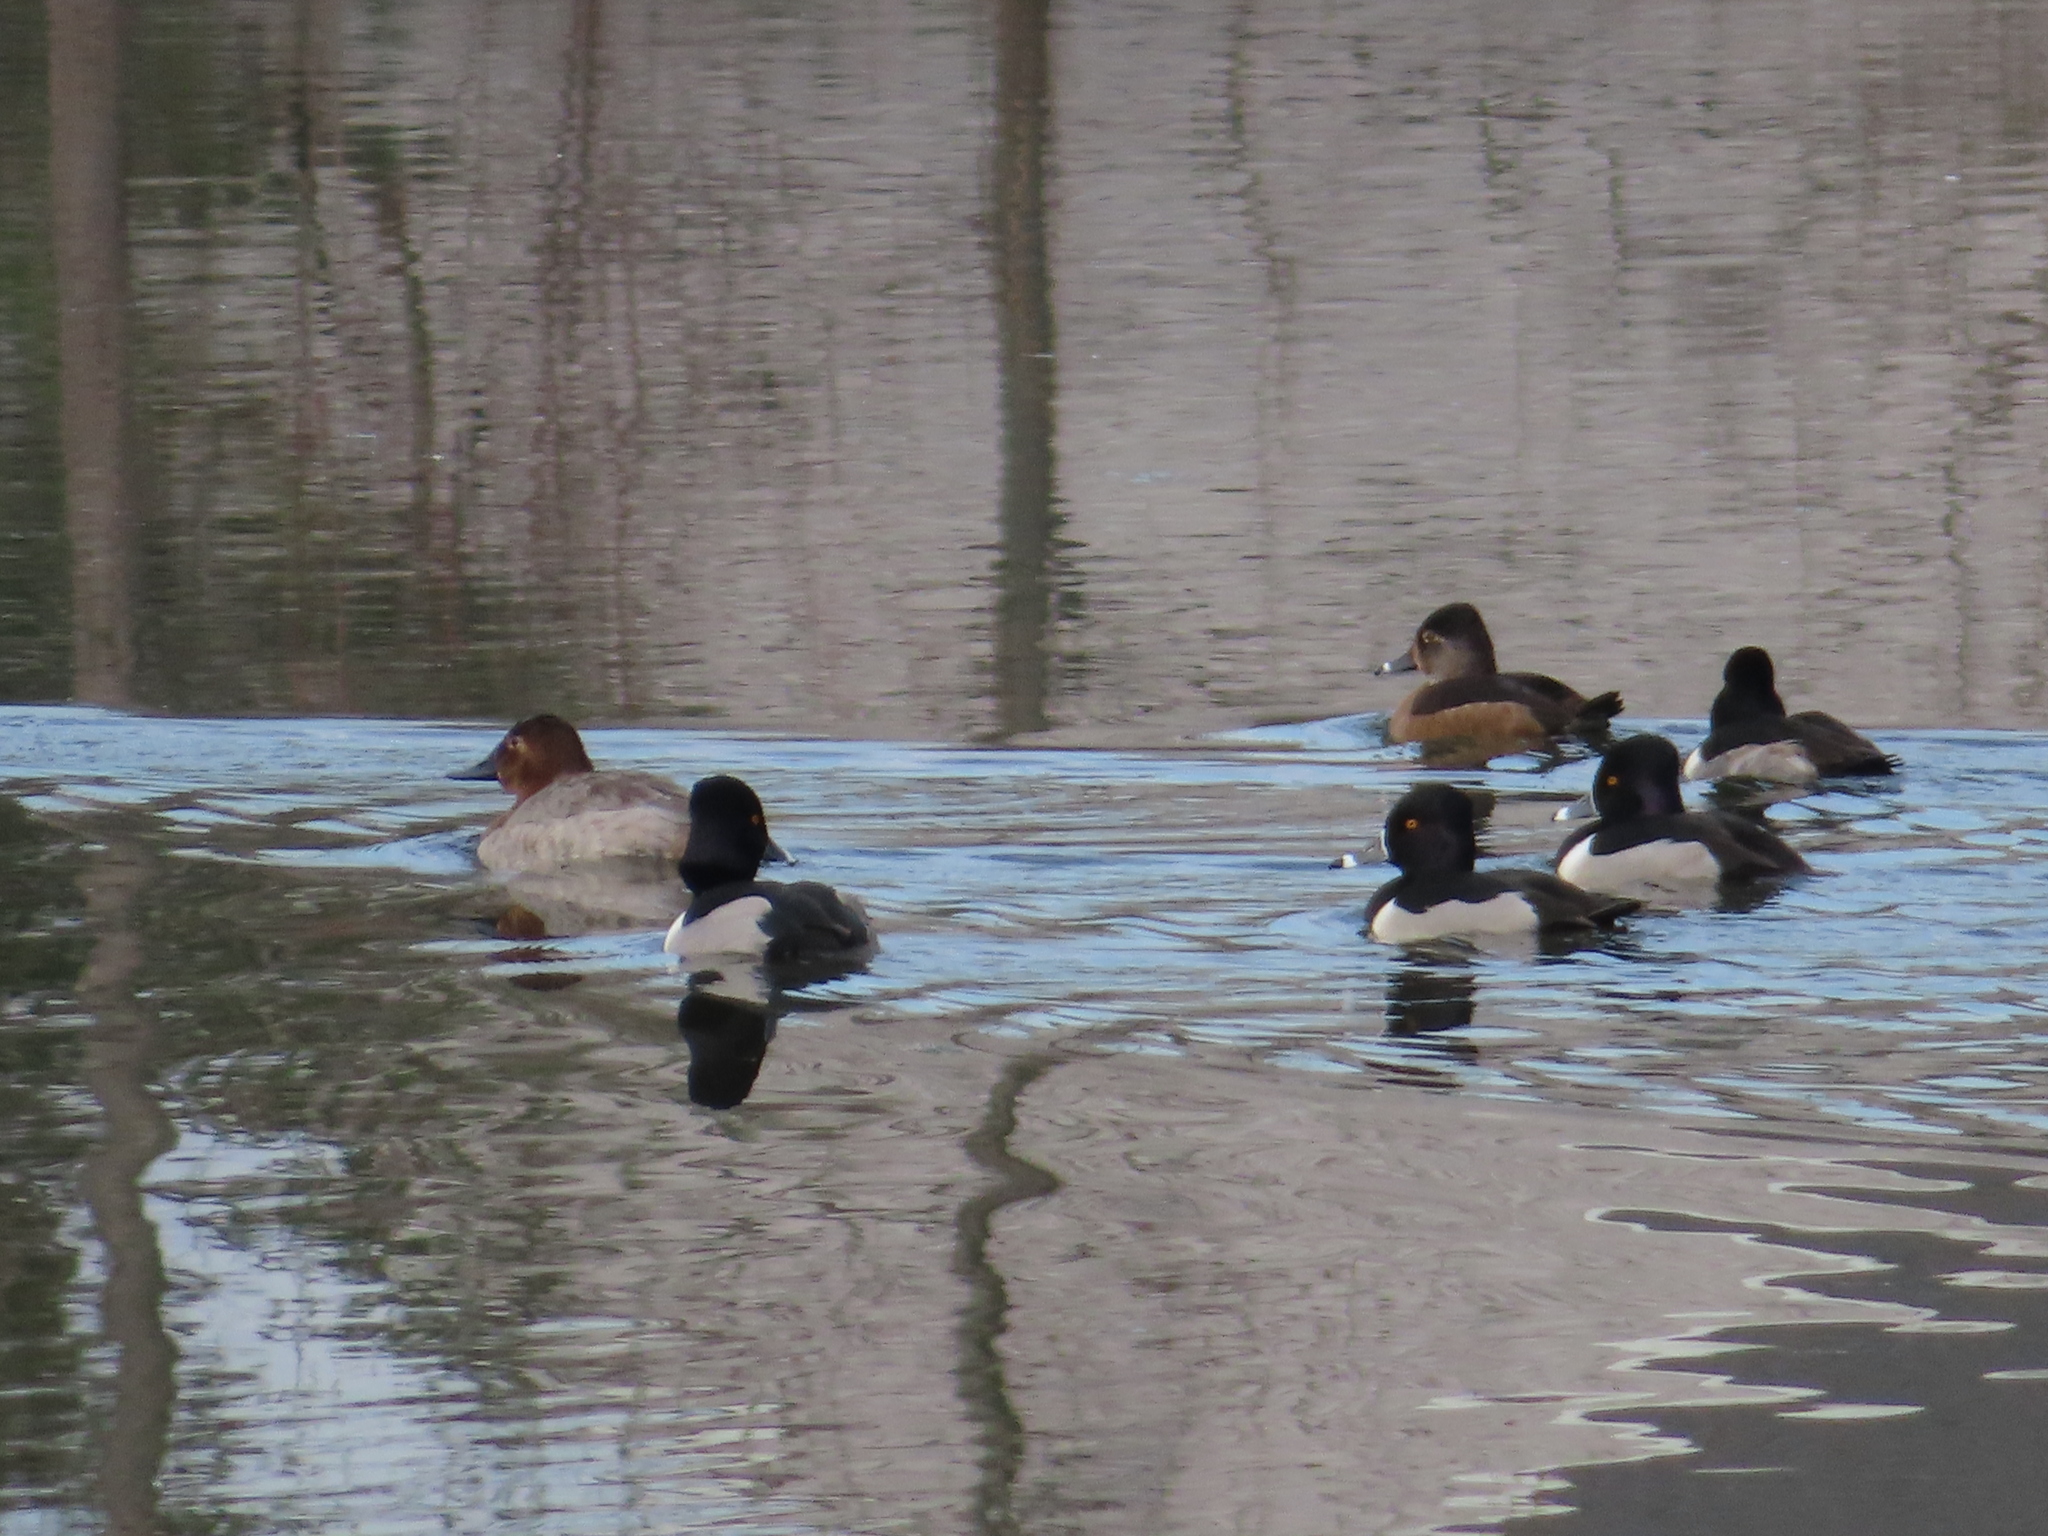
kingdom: Animalia
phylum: Chordata
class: Aves
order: Anseriformes
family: Anatidae
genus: Aythya
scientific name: Aythya collaris
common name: Ring-necked duck
